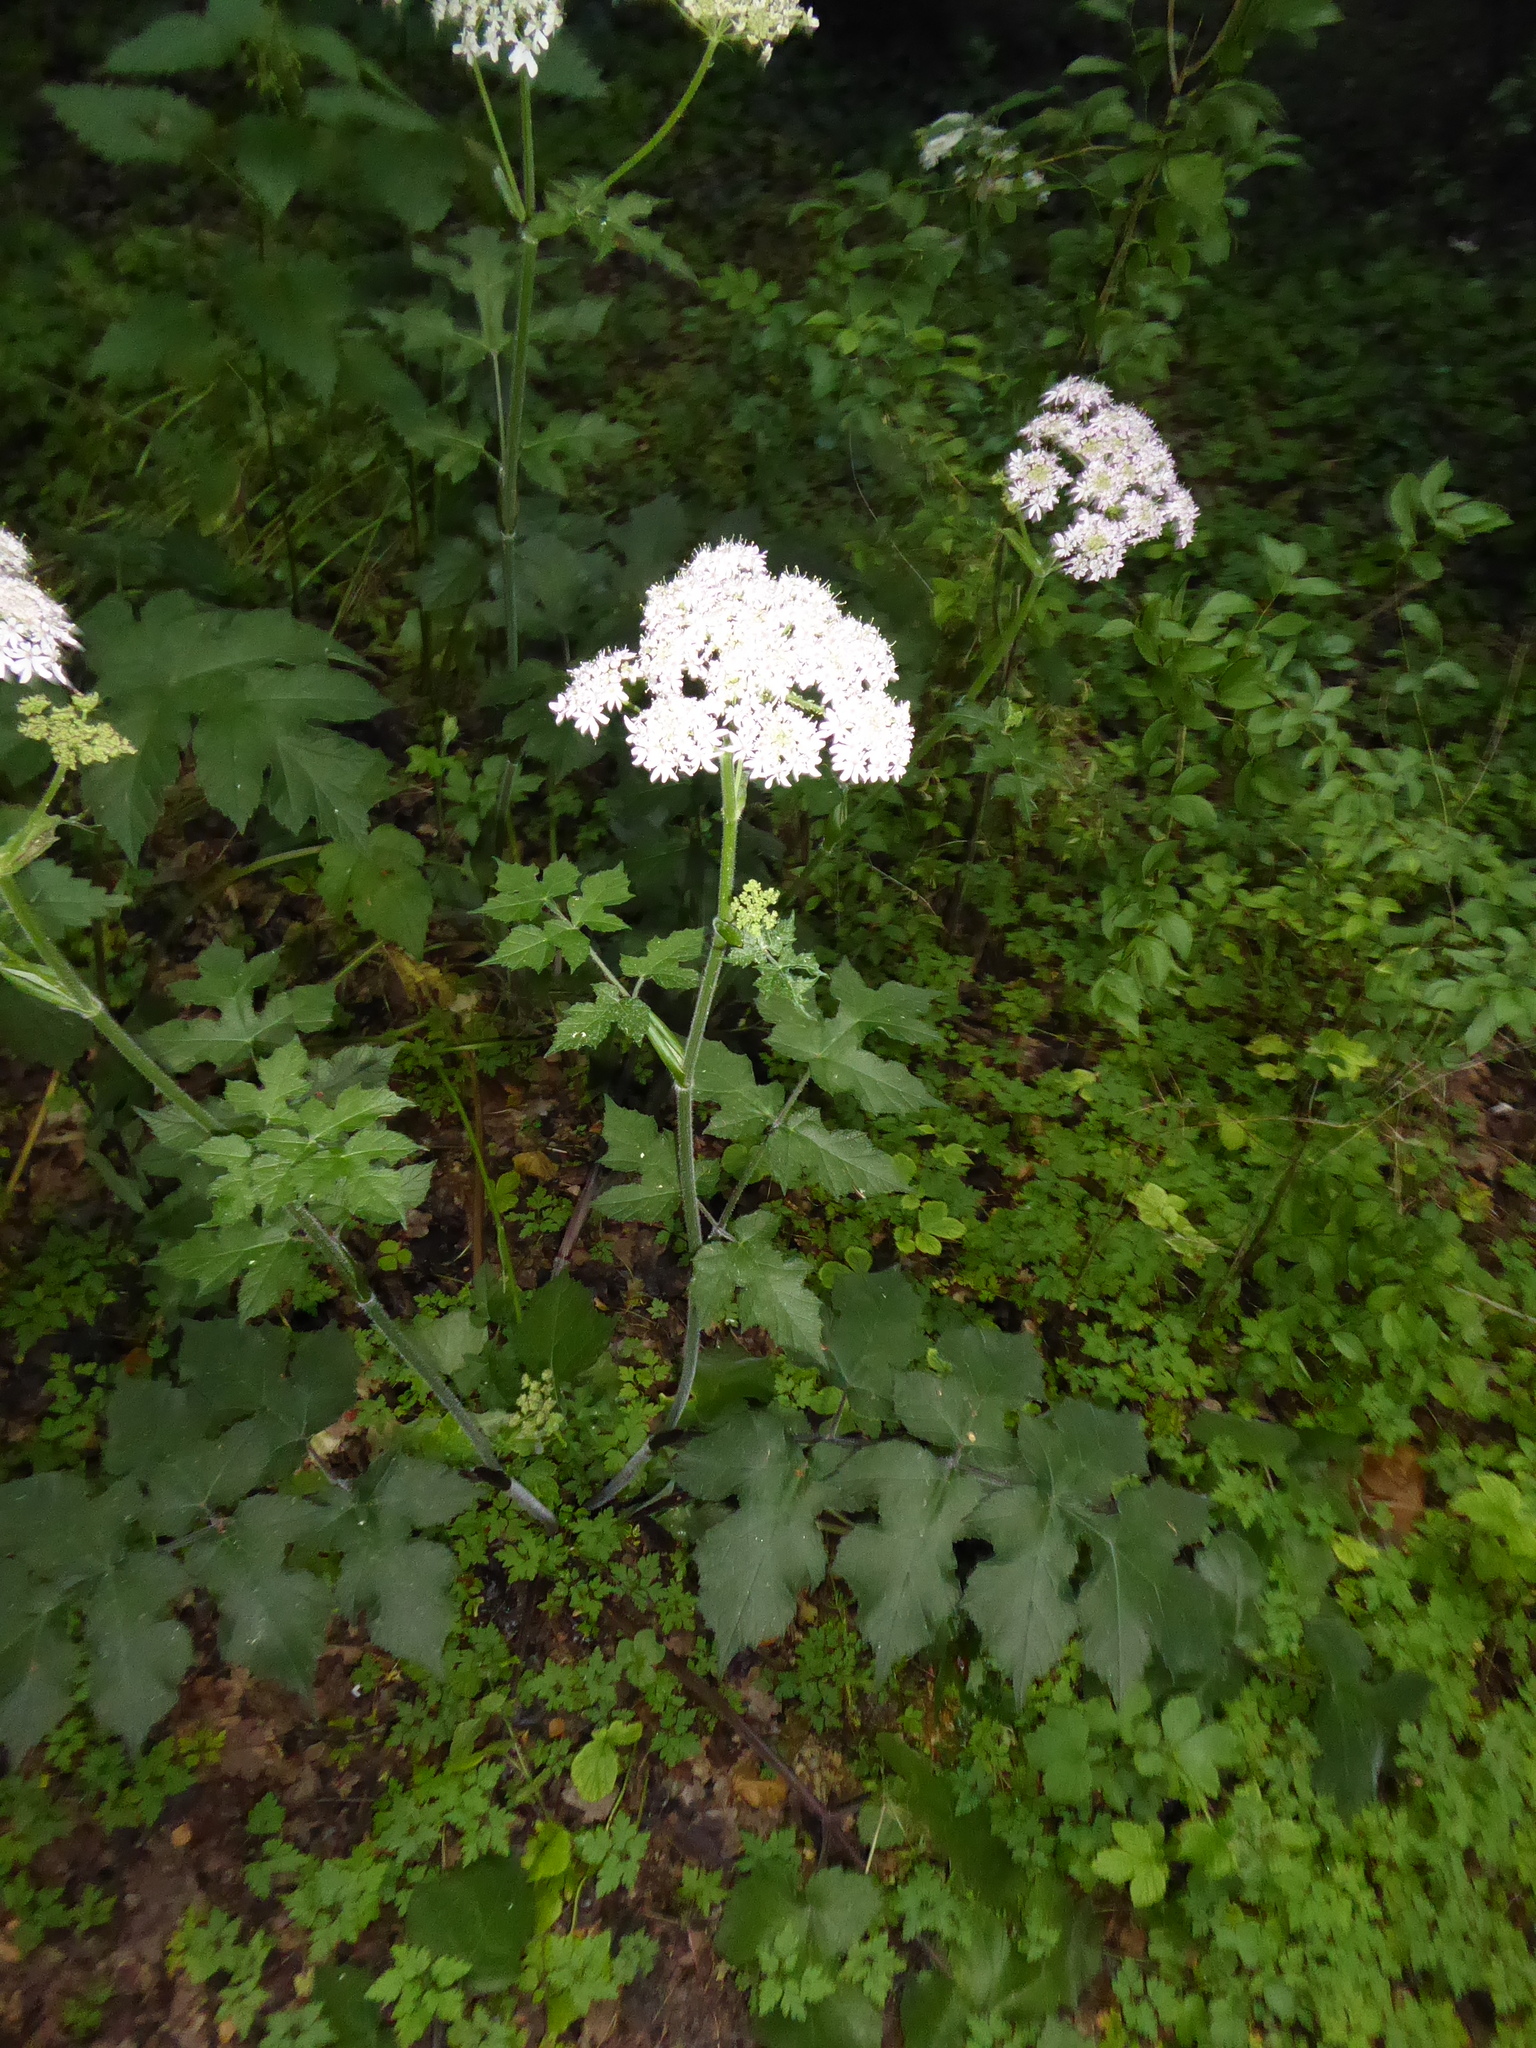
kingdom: Plantae
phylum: Tracheophyta
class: Magnoliopsida
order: Apiales
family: Apiaceae
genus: Heracleum
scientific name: Heracleum sphondylium
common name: Hogweed
